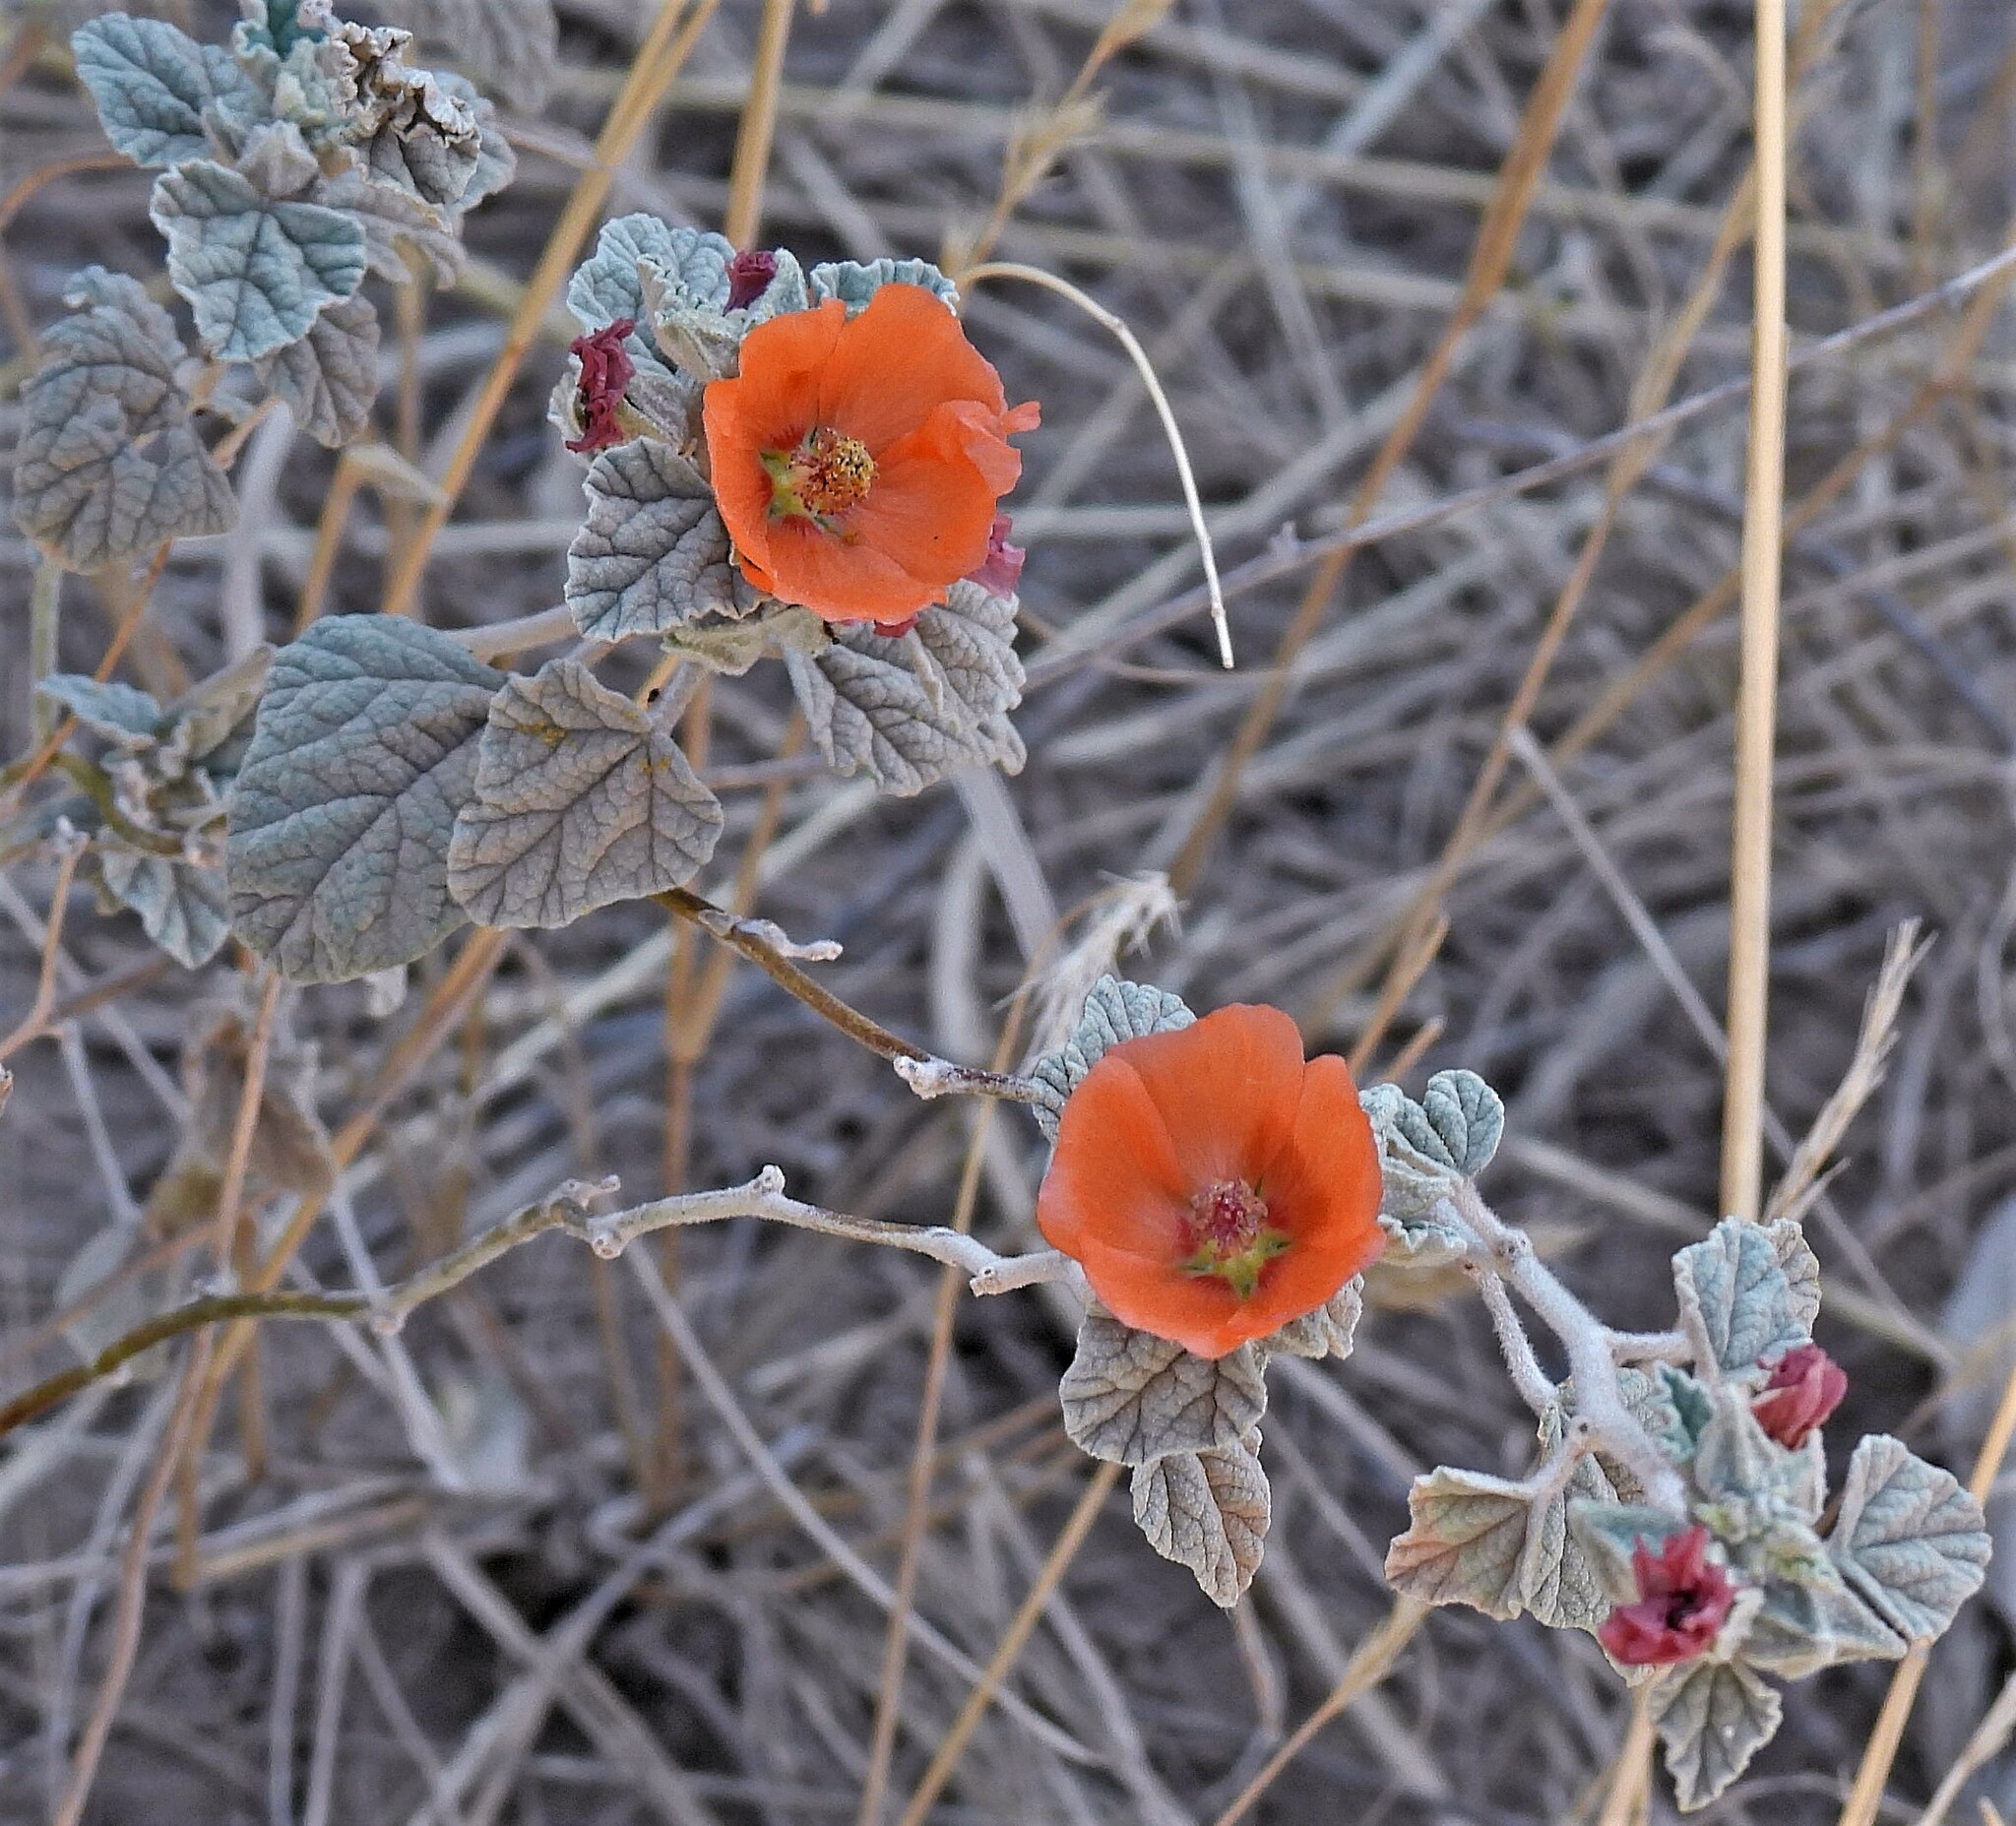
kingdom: Plantae
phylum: Tracheophyta
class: Magnoliopsida
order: Malvales
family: Malvaceae
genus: Sphaeralcea
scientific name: Sphaeralcea cordobensis
